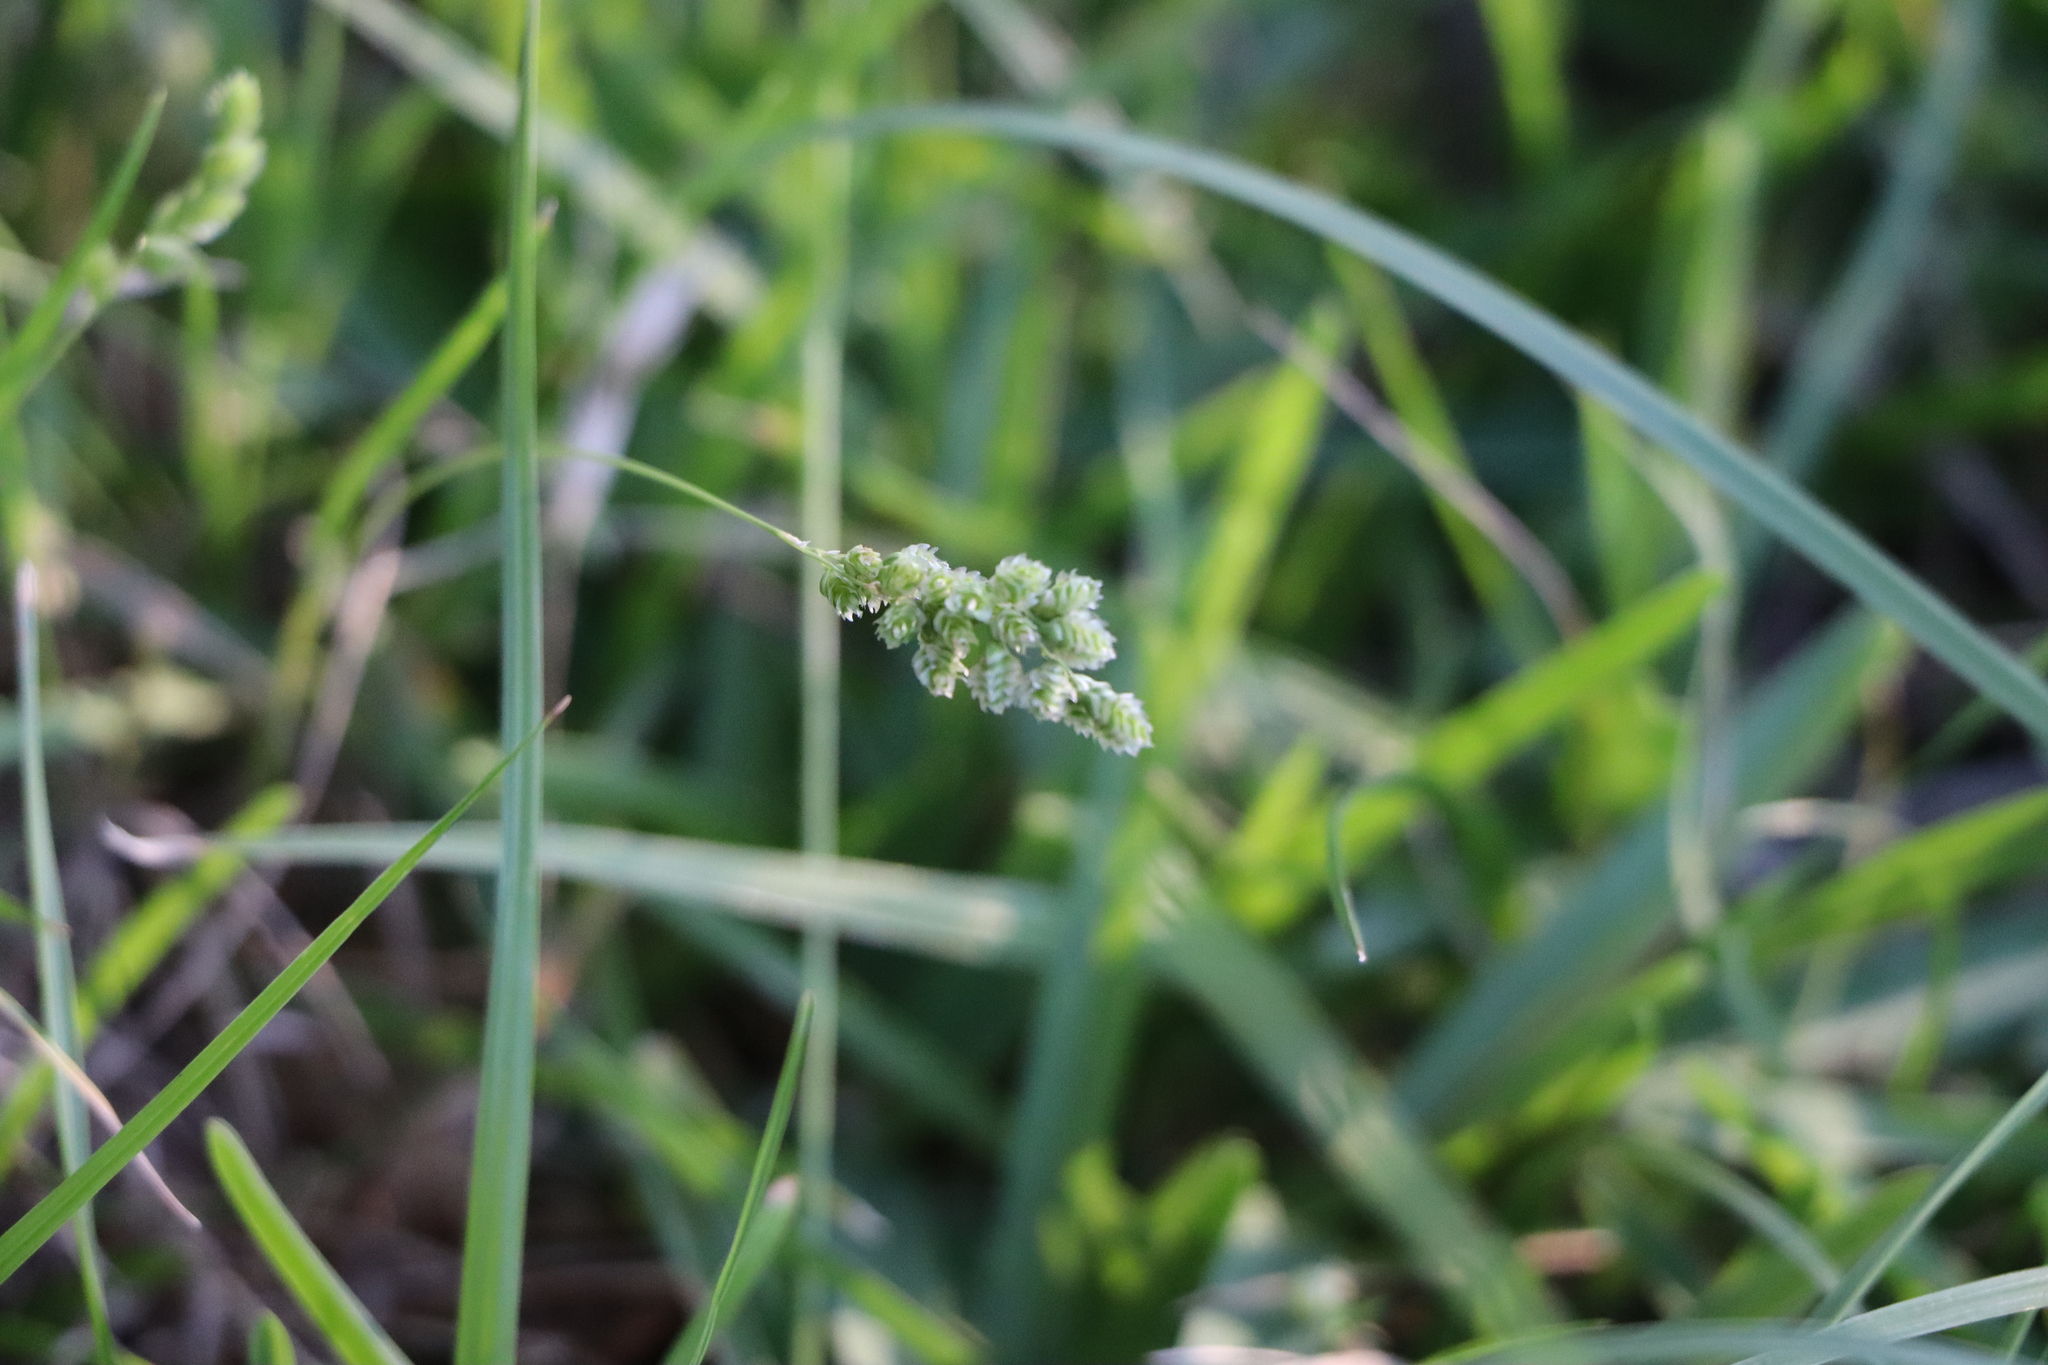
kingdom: Plantae
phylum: Tracheophyta
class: Liliopsida
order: Poales
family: Poaceae
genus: Chascolytrum
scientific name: Chascolytrum subaristatum
